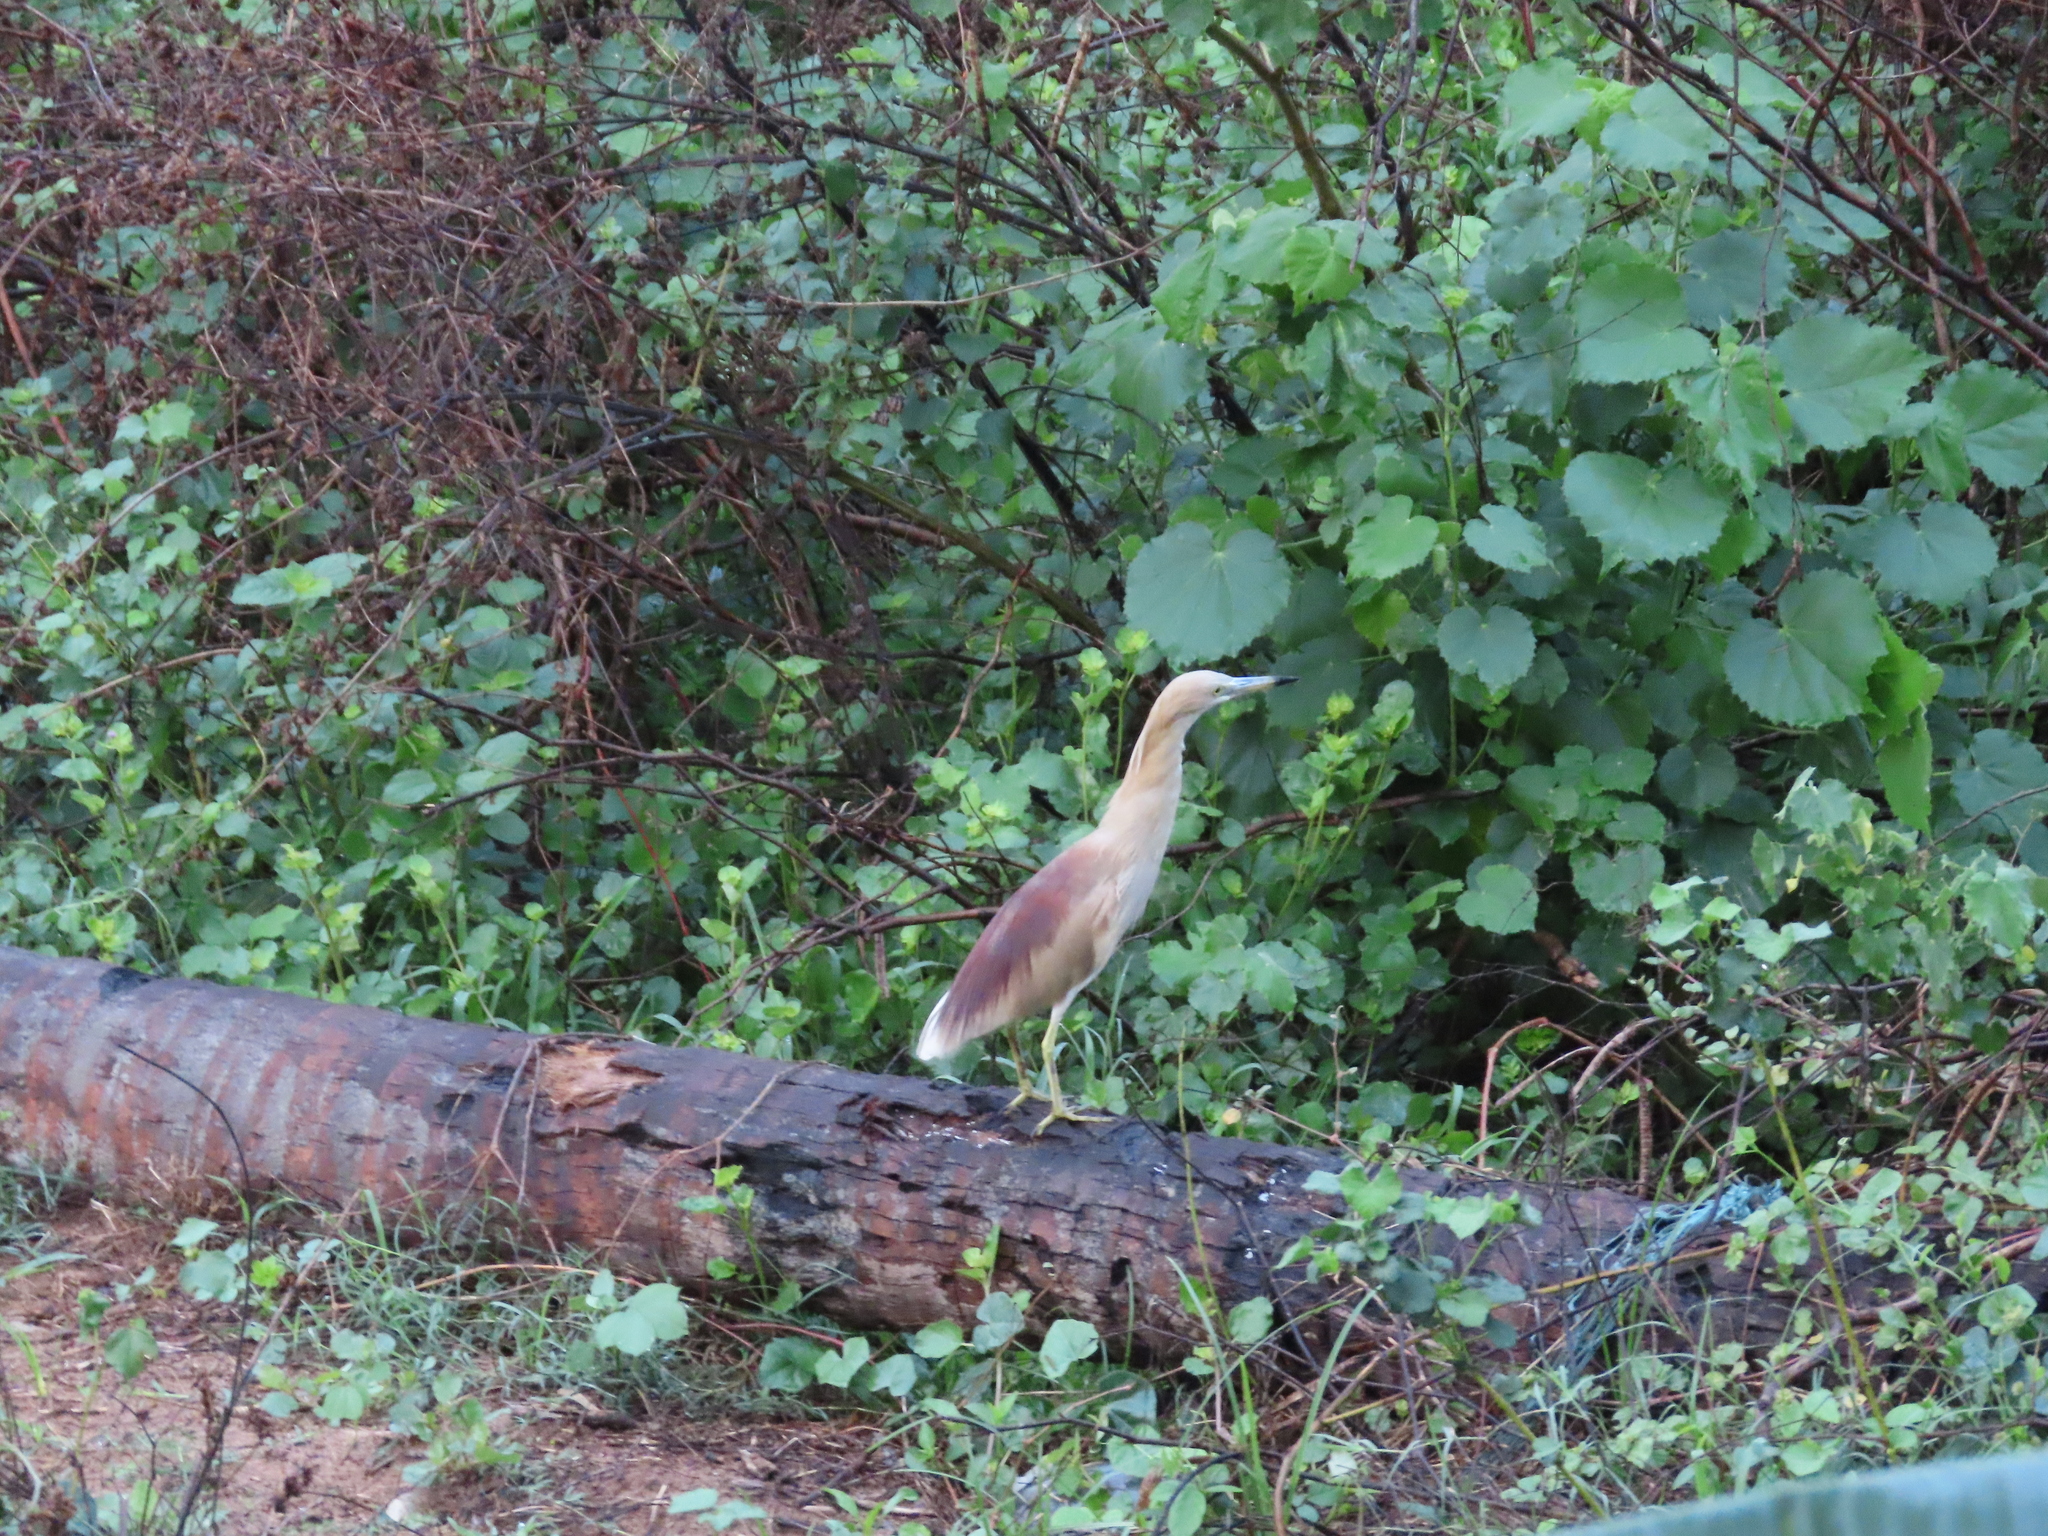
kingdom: Animalia
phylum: Chordata
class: Aves
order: Pelecaniformes
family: Ardeidae
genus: Ardeola
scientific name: Ardeola grayii
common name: Indian pond heron
